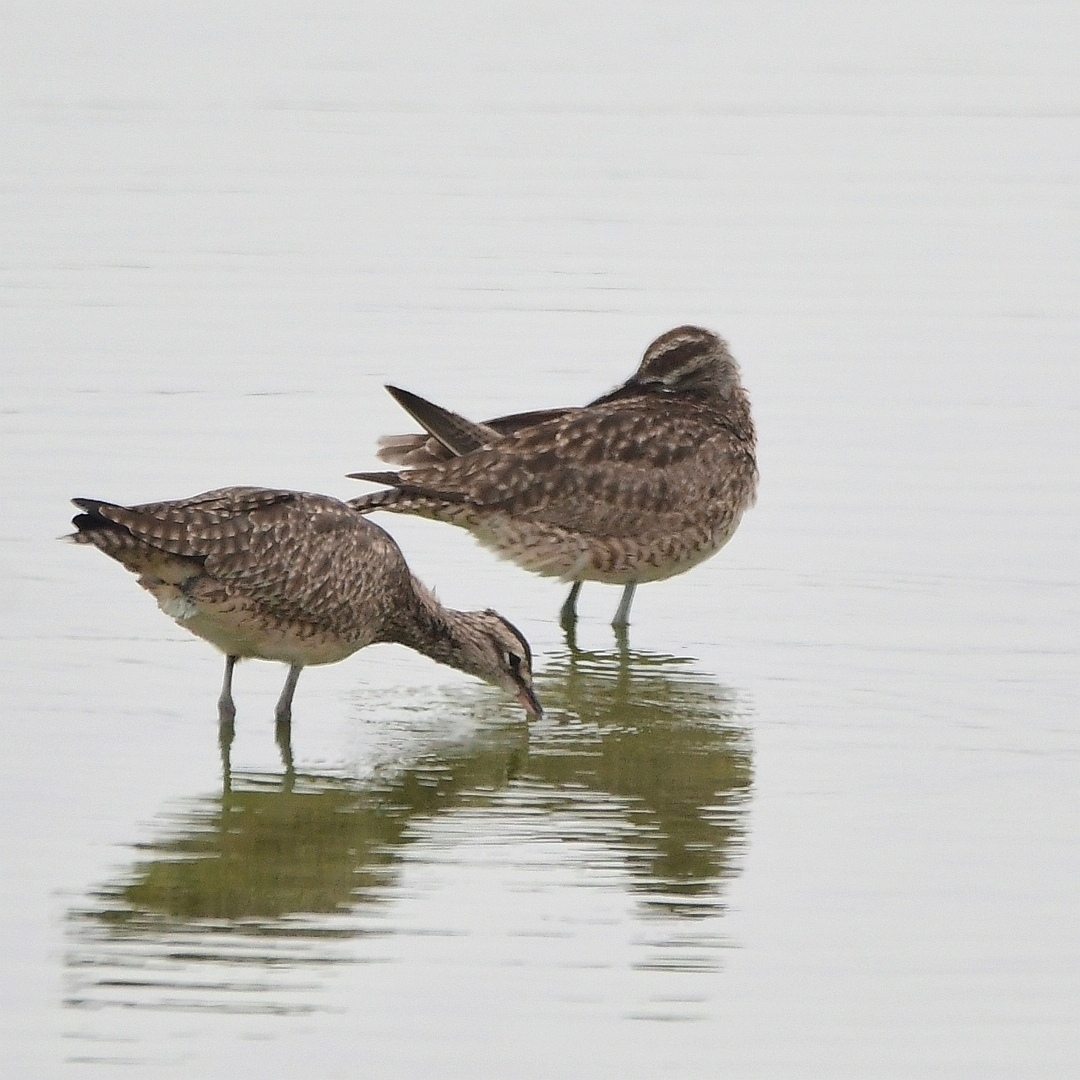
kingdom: Animalia
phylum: Chordata
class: Aves
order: Charadriiformes
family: Scolopacidae
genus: Numenius
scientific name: Numenius phaeopus
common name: Whimbrel
